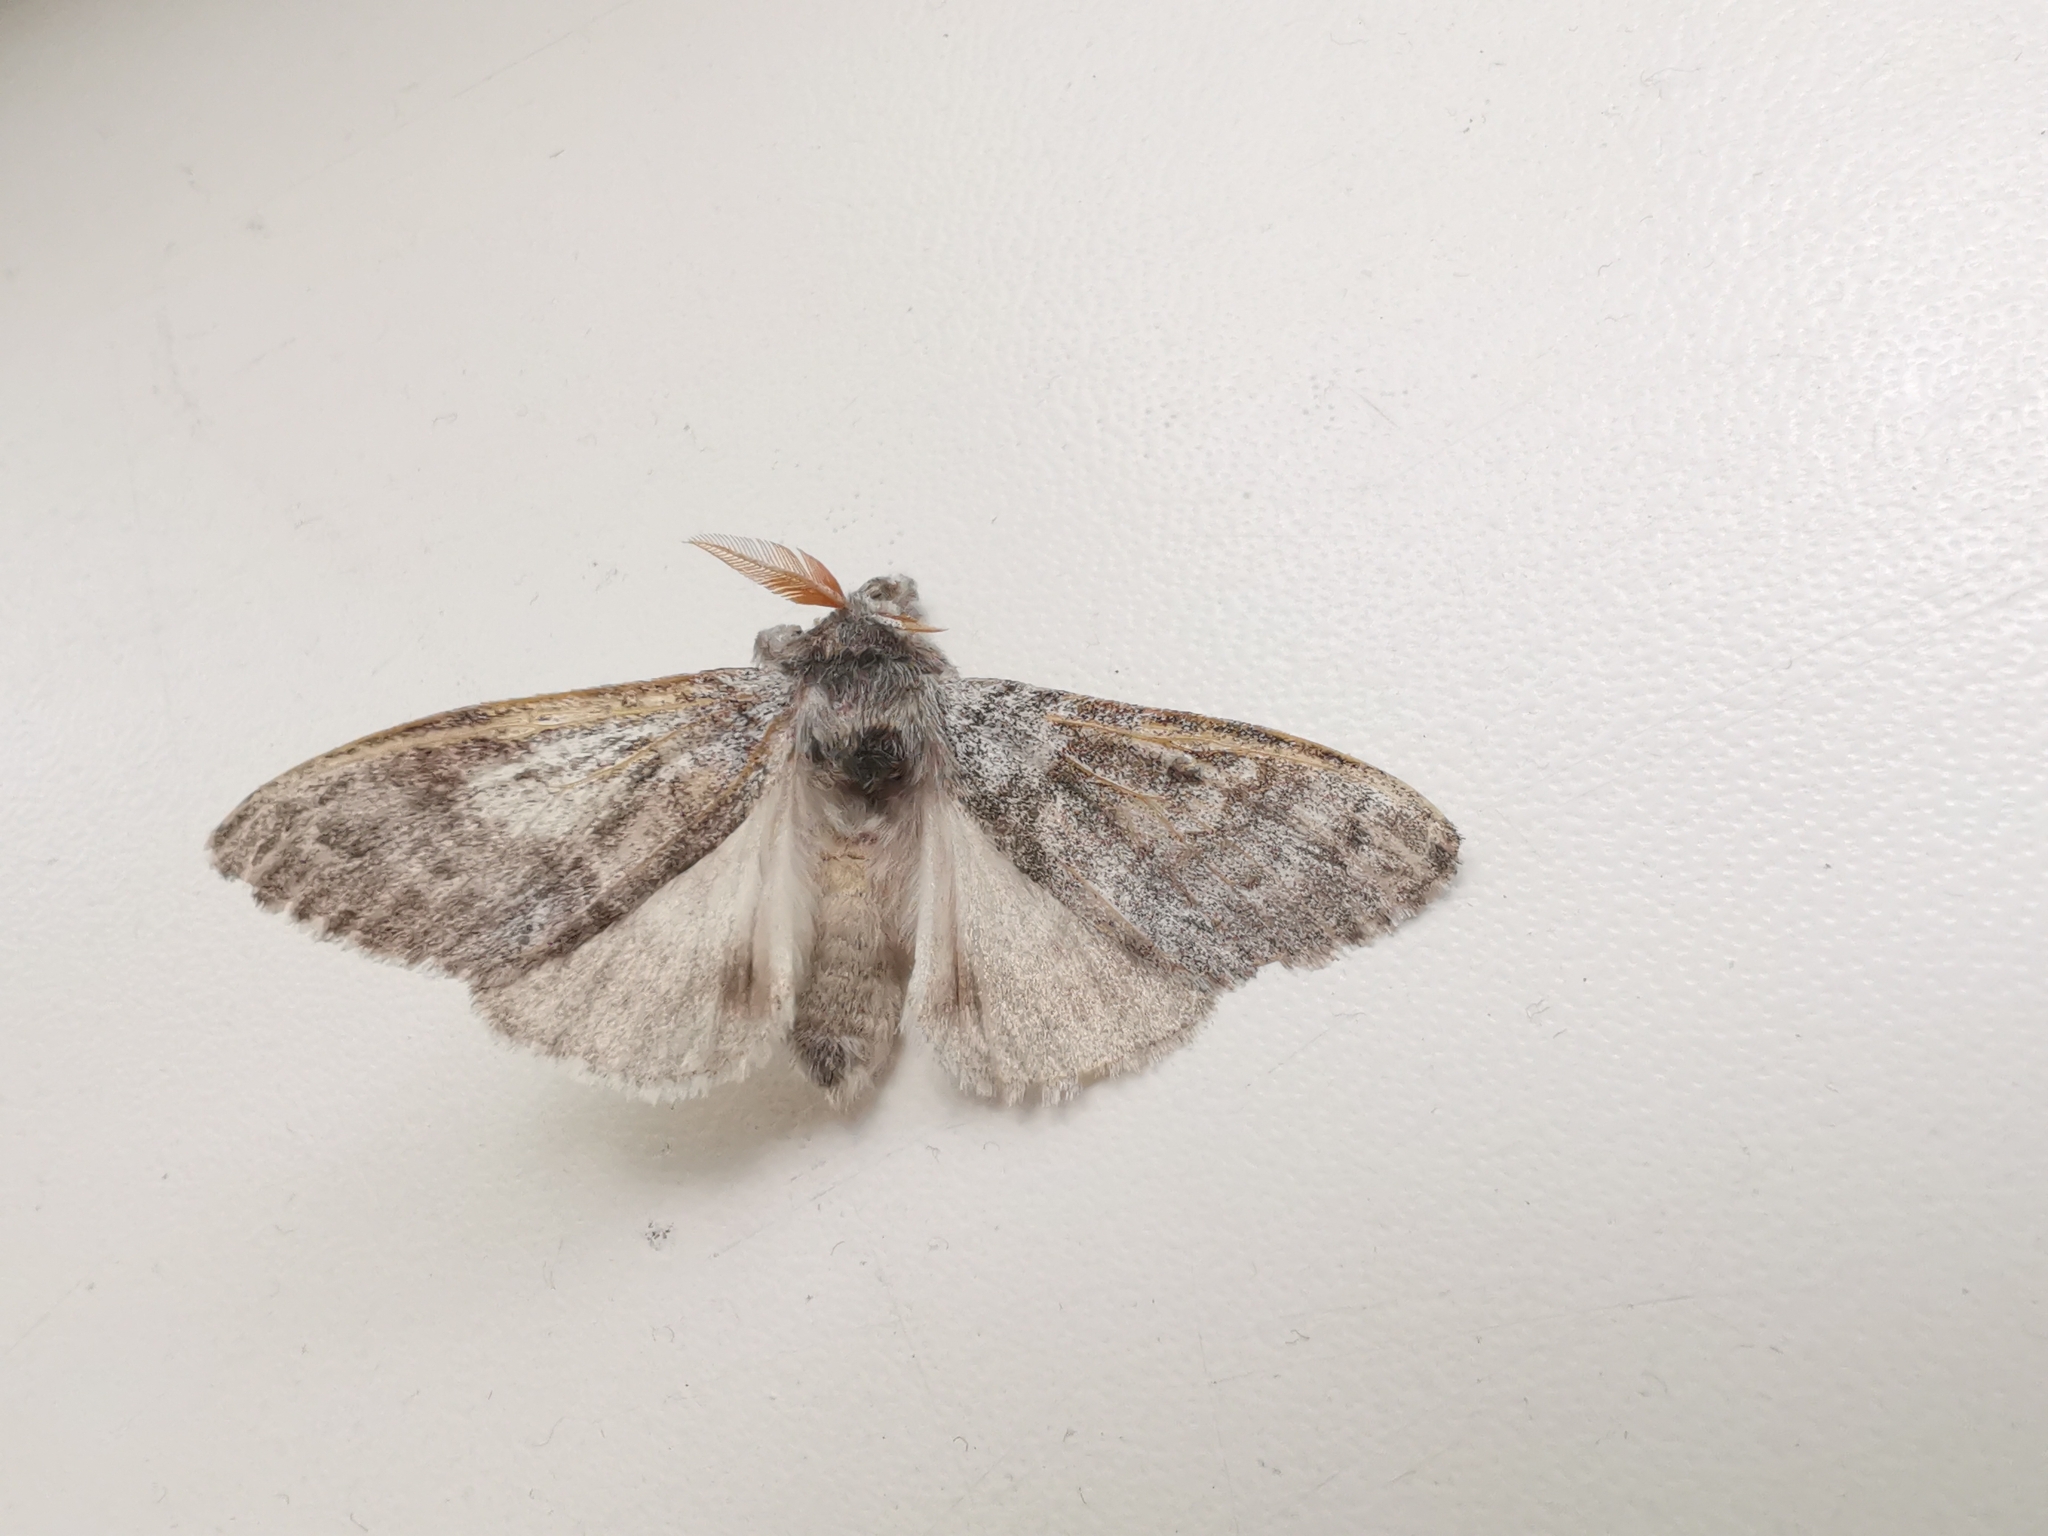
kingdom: Animalia
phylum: Arthropoda
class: Insecta
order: Lepidoptera
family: Erebidae
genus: Calliteara
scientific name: Calliteara pudibunda
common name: Pale tussock
